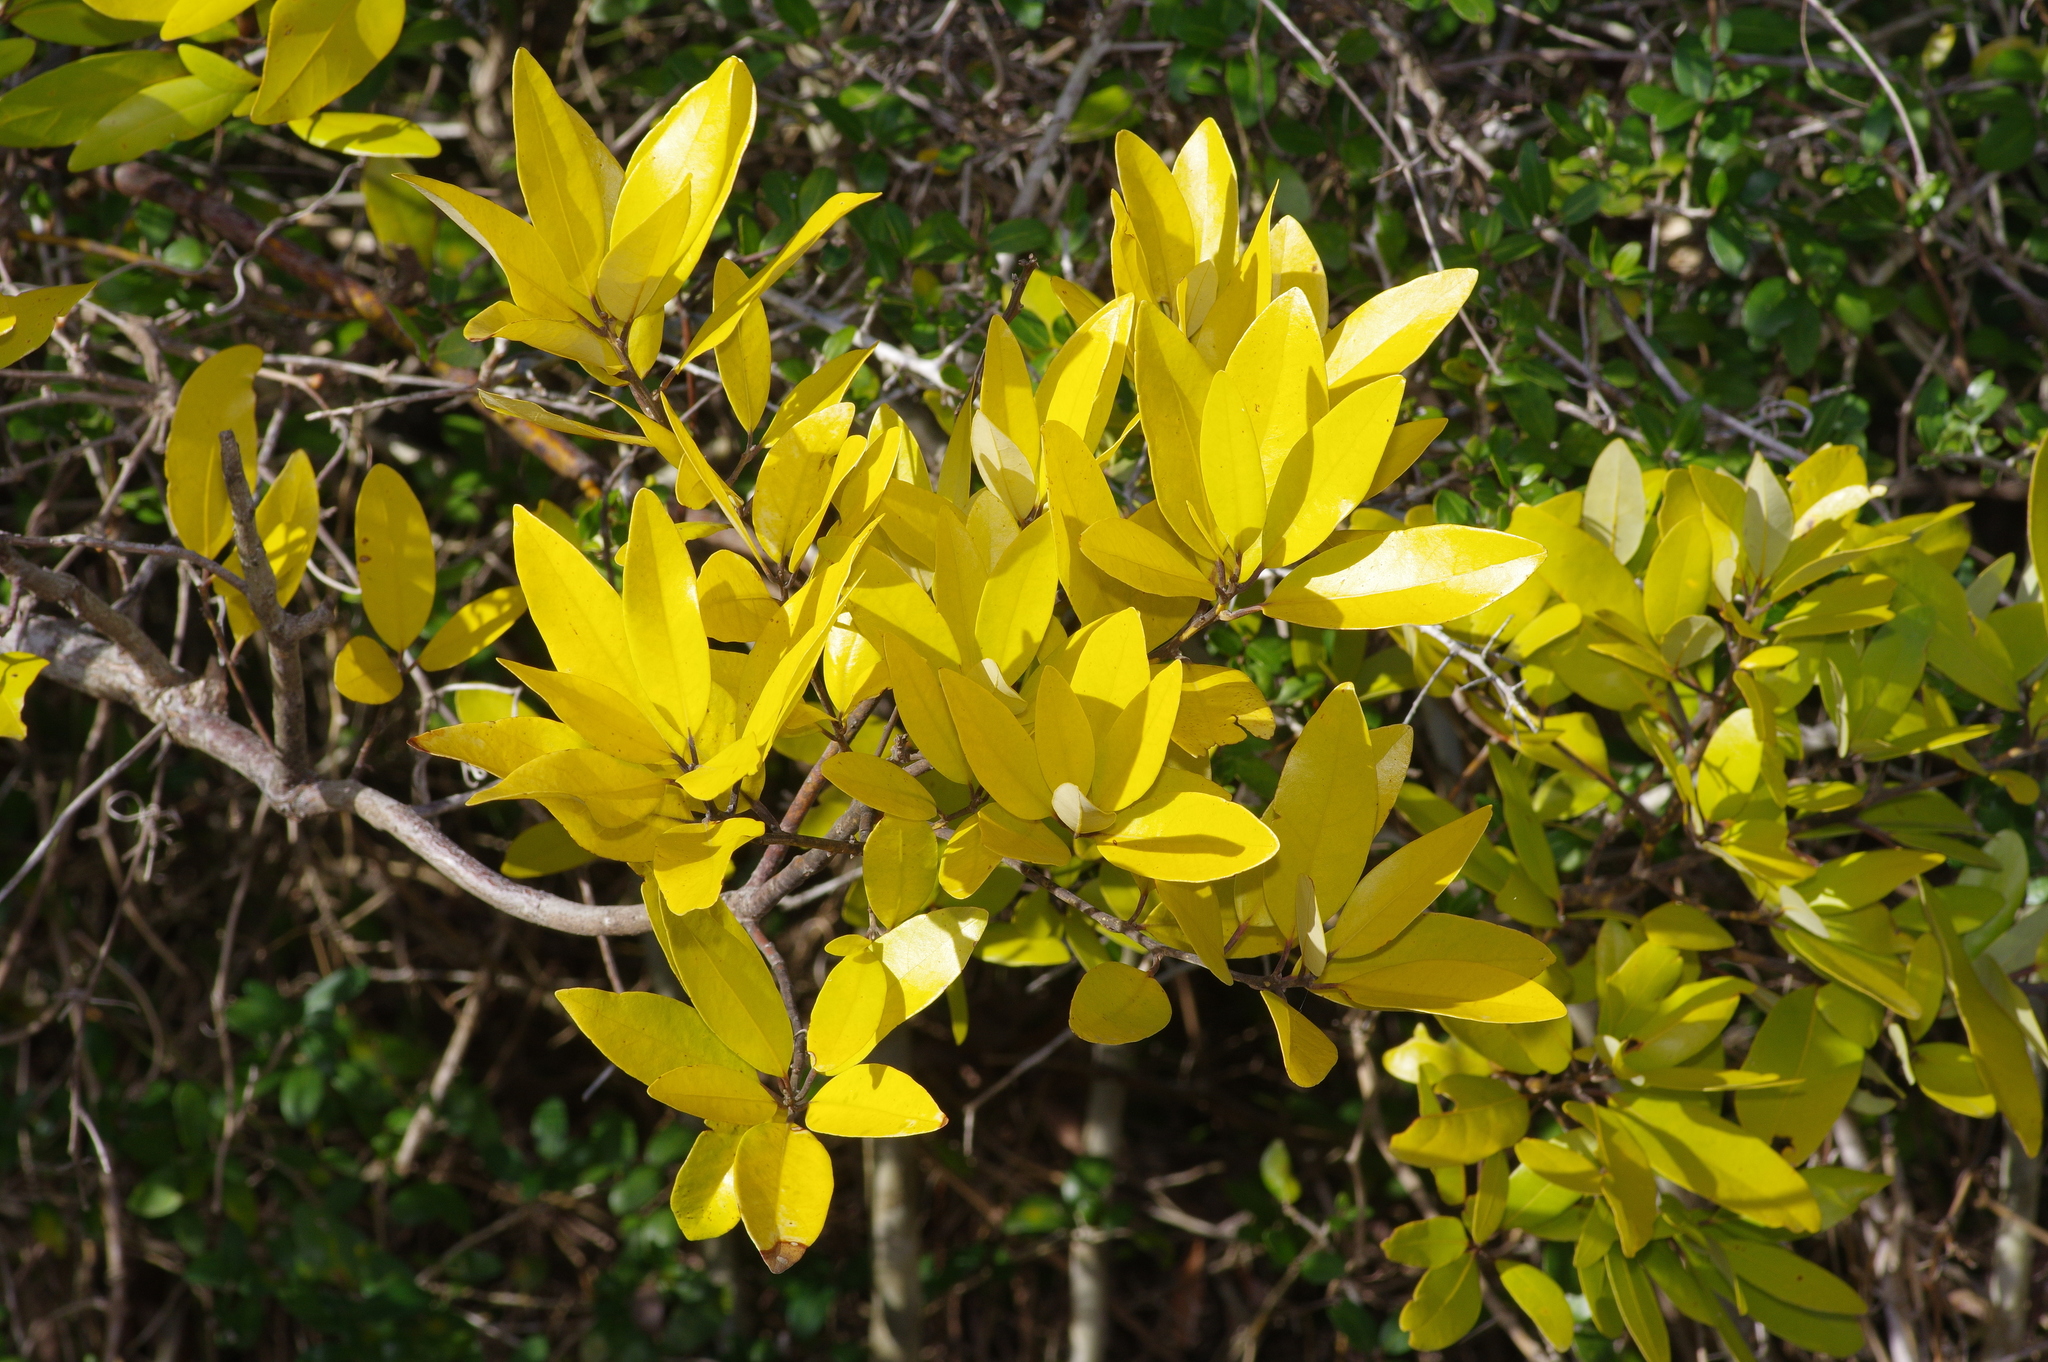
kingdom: Plantae
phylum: Tracheophyta
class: Magnoliopsida
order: Laurales
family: Lauraceae
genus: Persea
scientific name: Persea borbonia
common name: Redbay
